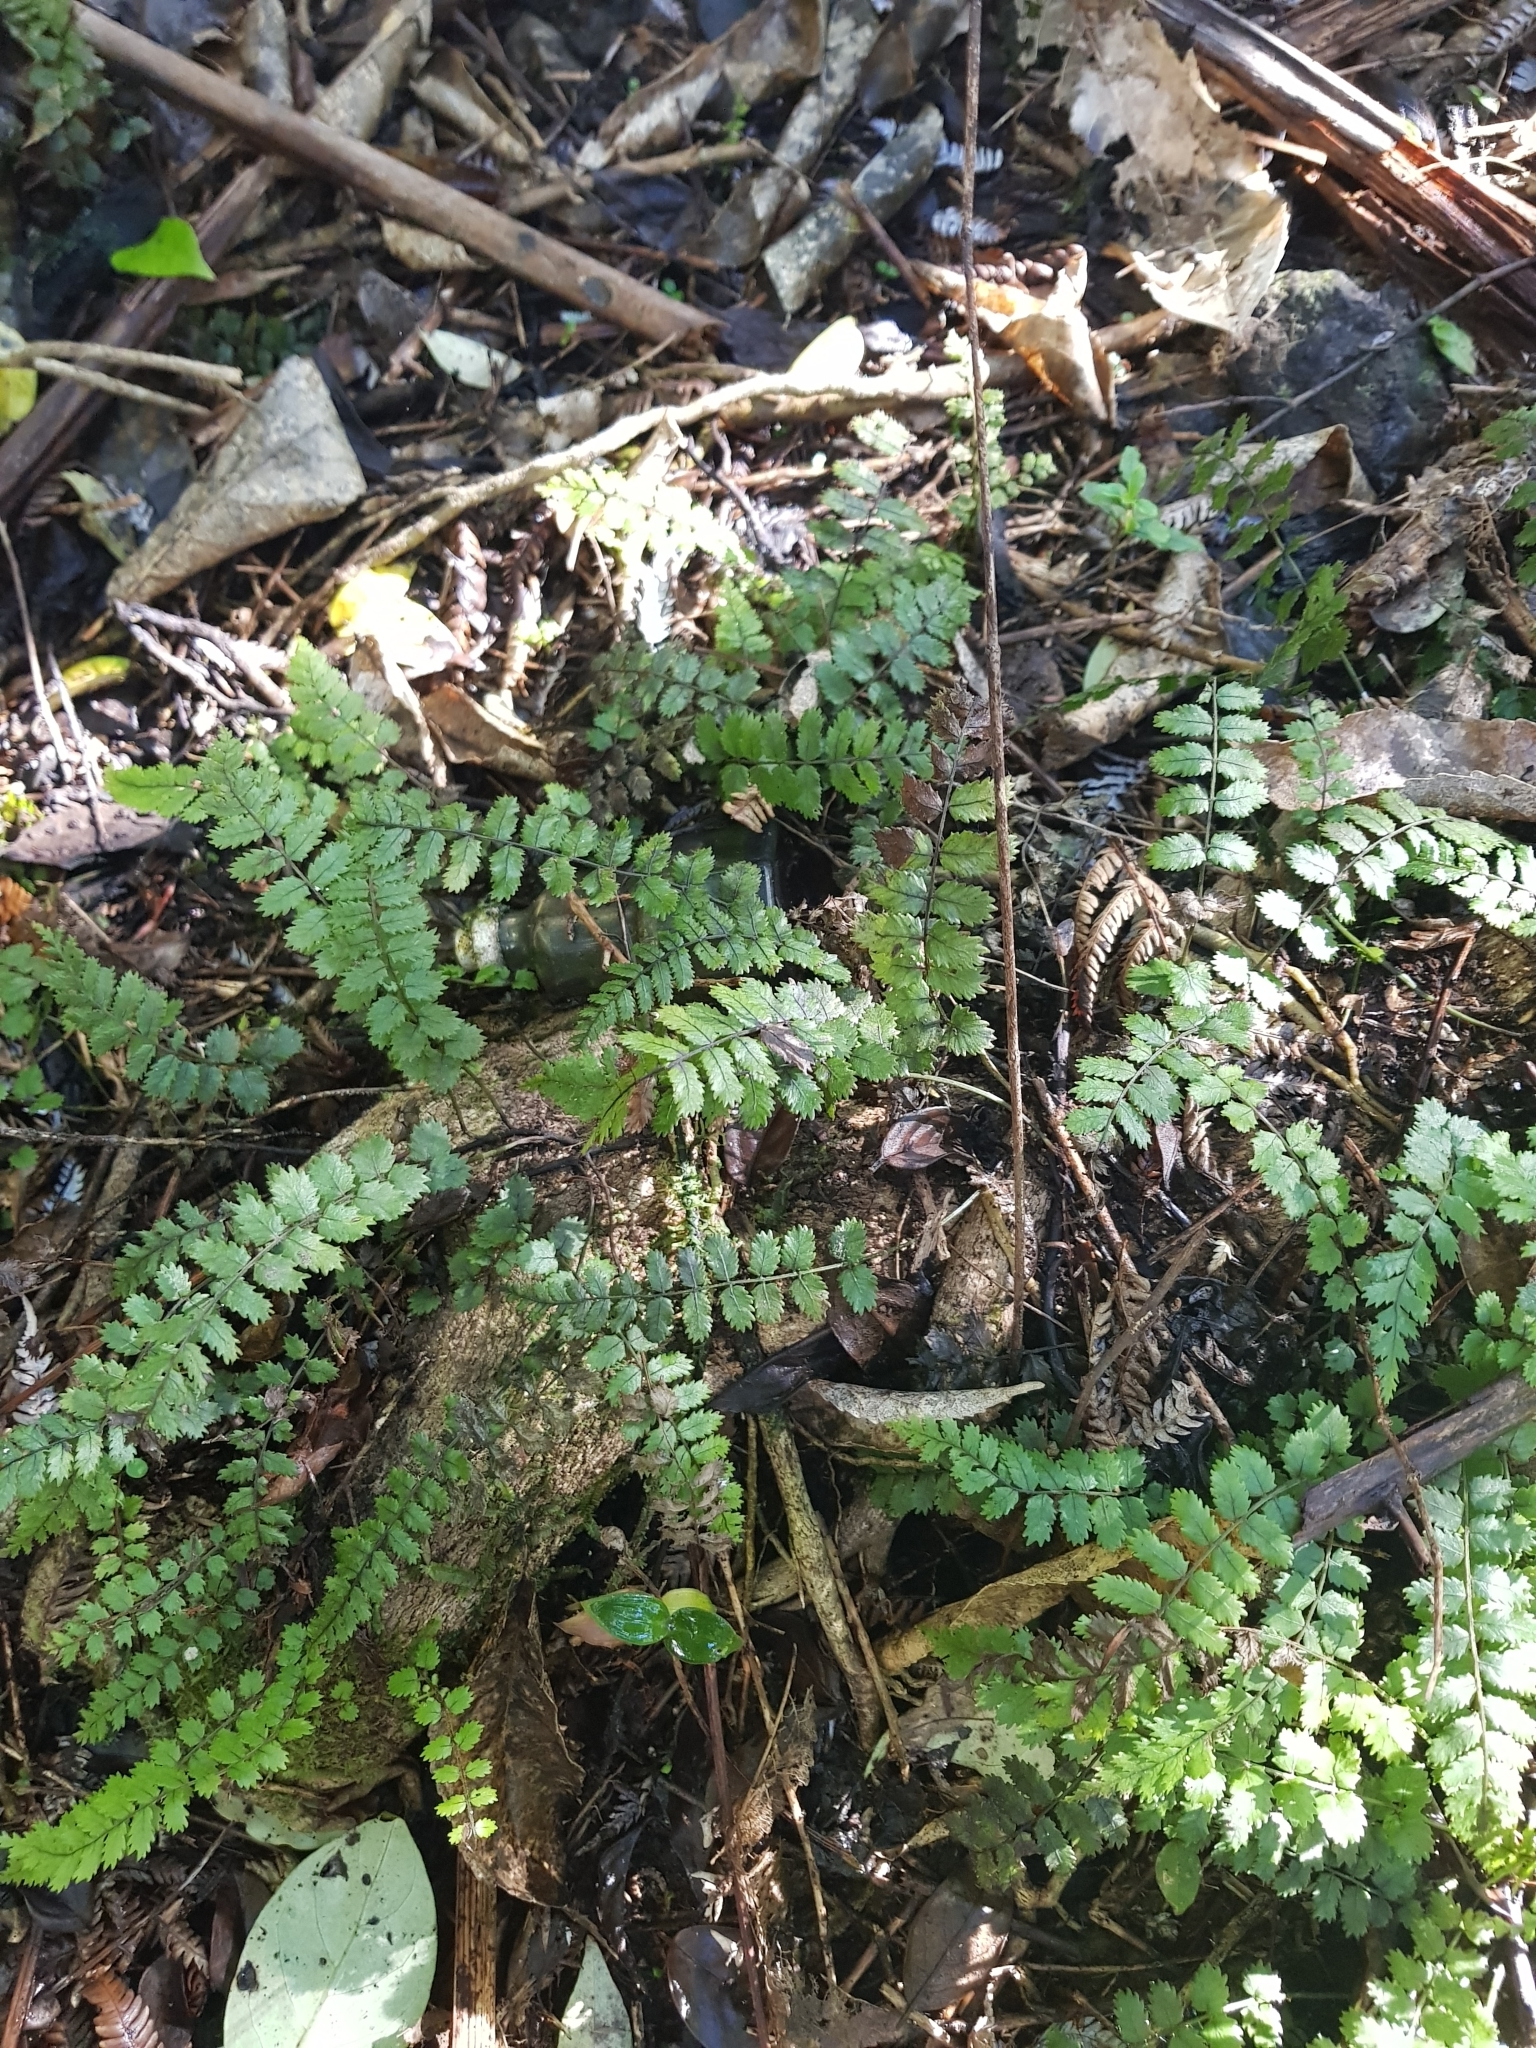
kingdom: Plantae
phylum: Tracheophyta
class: Polypodiopsida
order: Polypodiales
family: Blechnaceae
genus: Icarus
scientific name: Icarus filiformis
